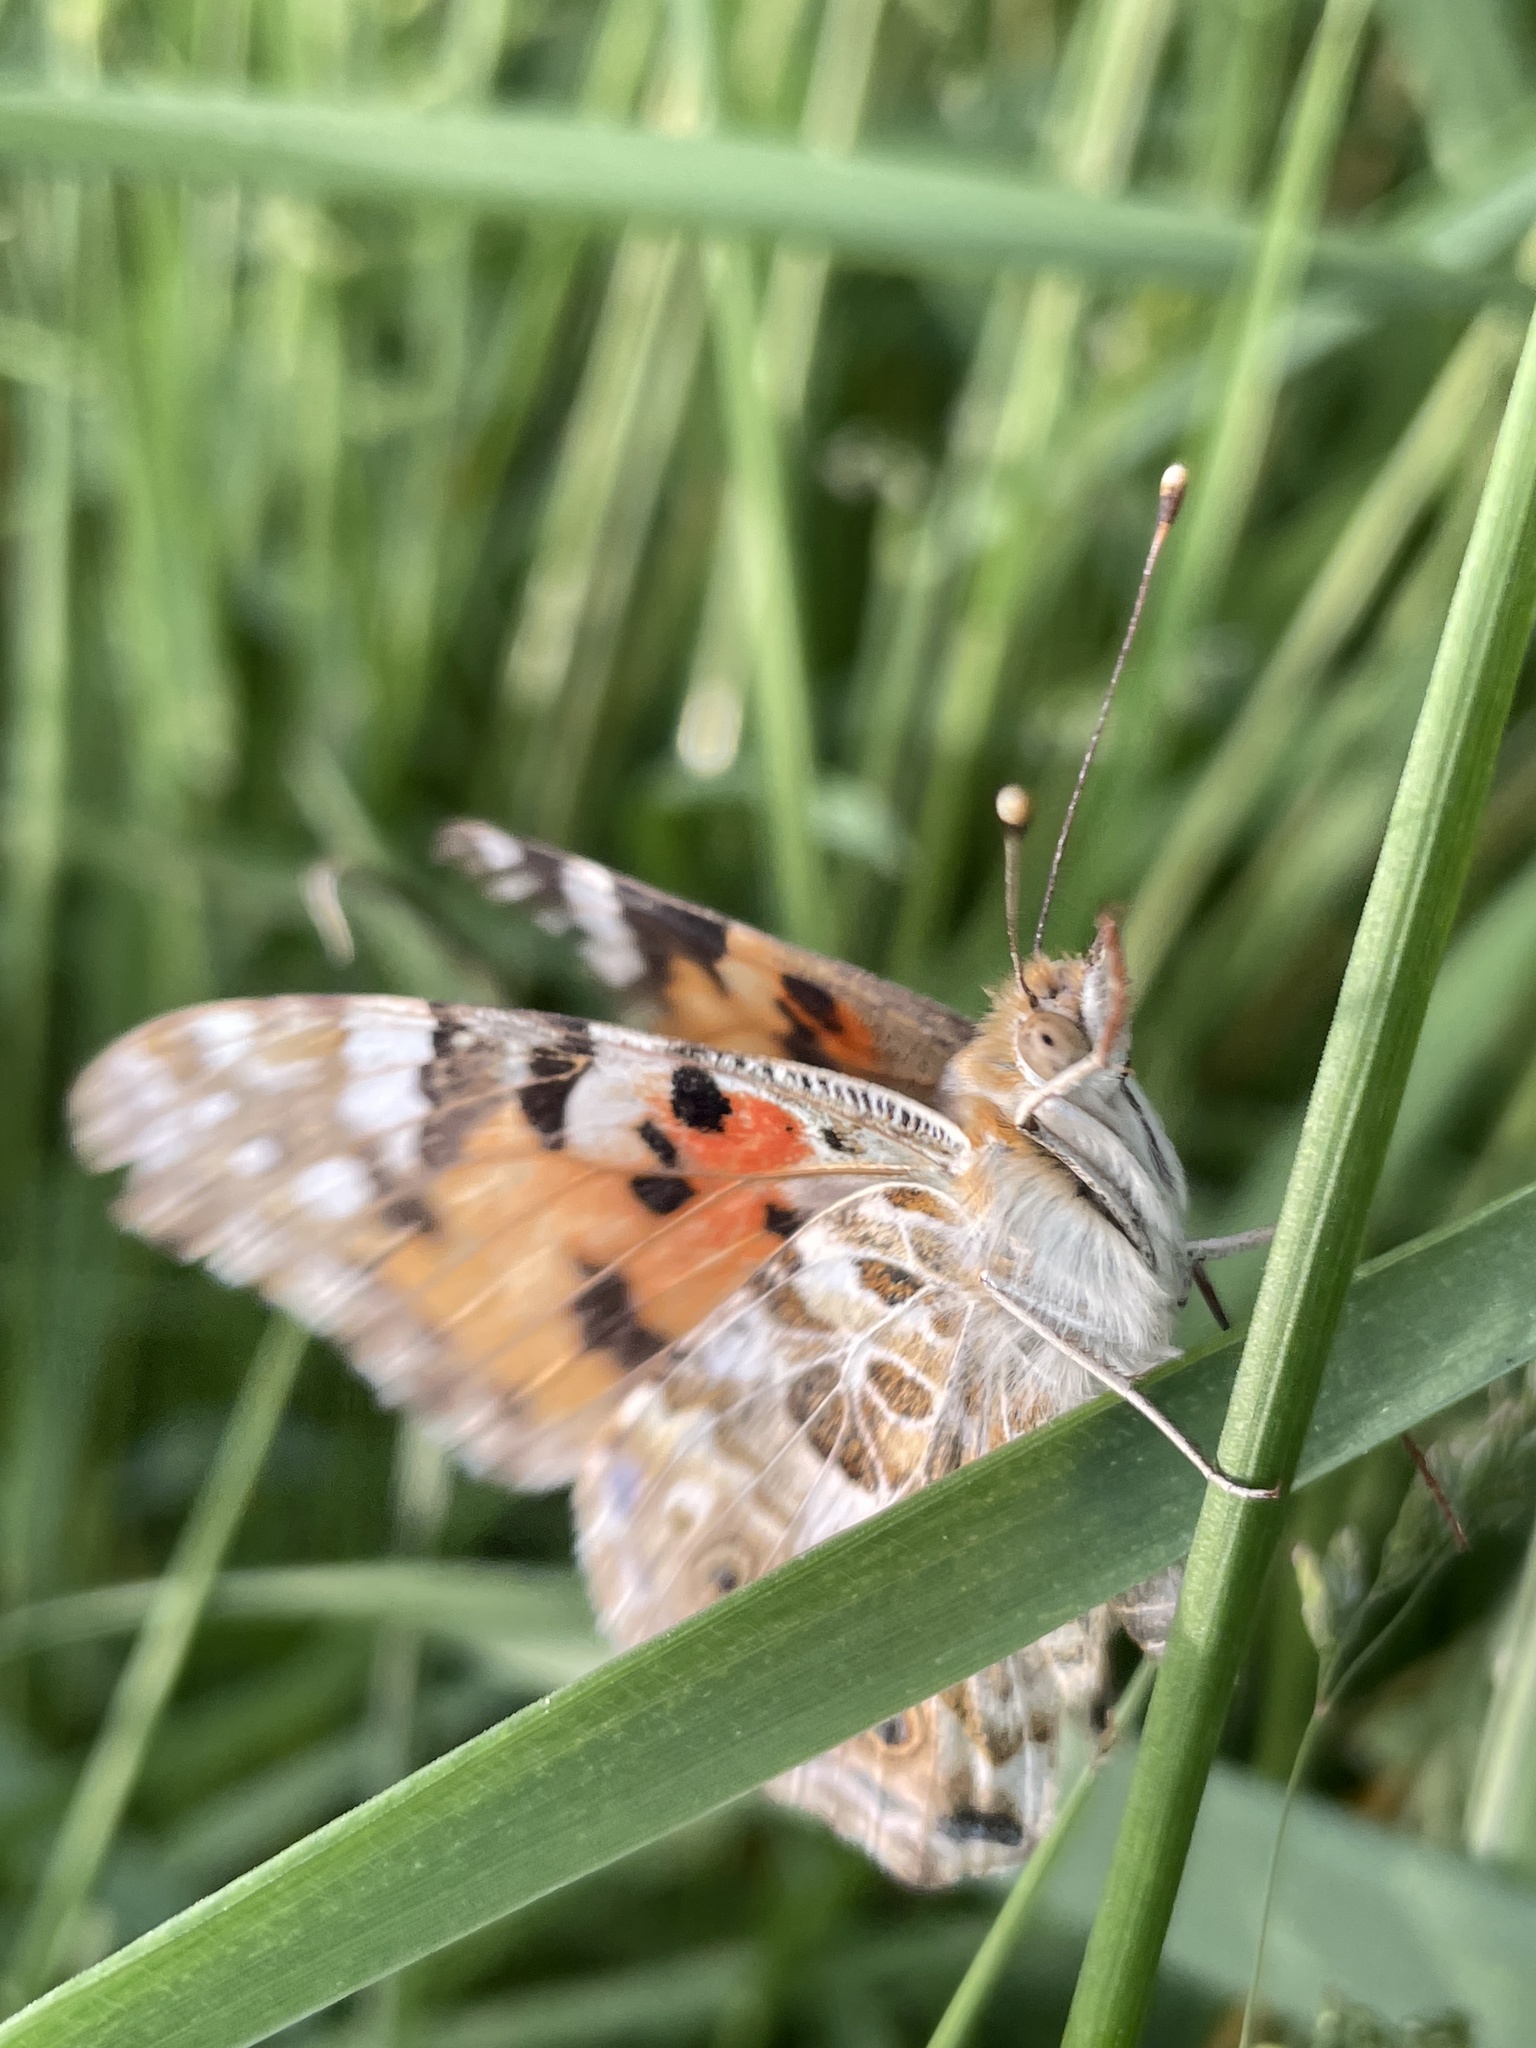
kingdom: Animalia
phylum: Arthropoda
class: Insecta
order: Lepidoptera
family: Nymphalidae
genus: Vanessa
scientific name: Vanessa cardui
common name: Painted lady
